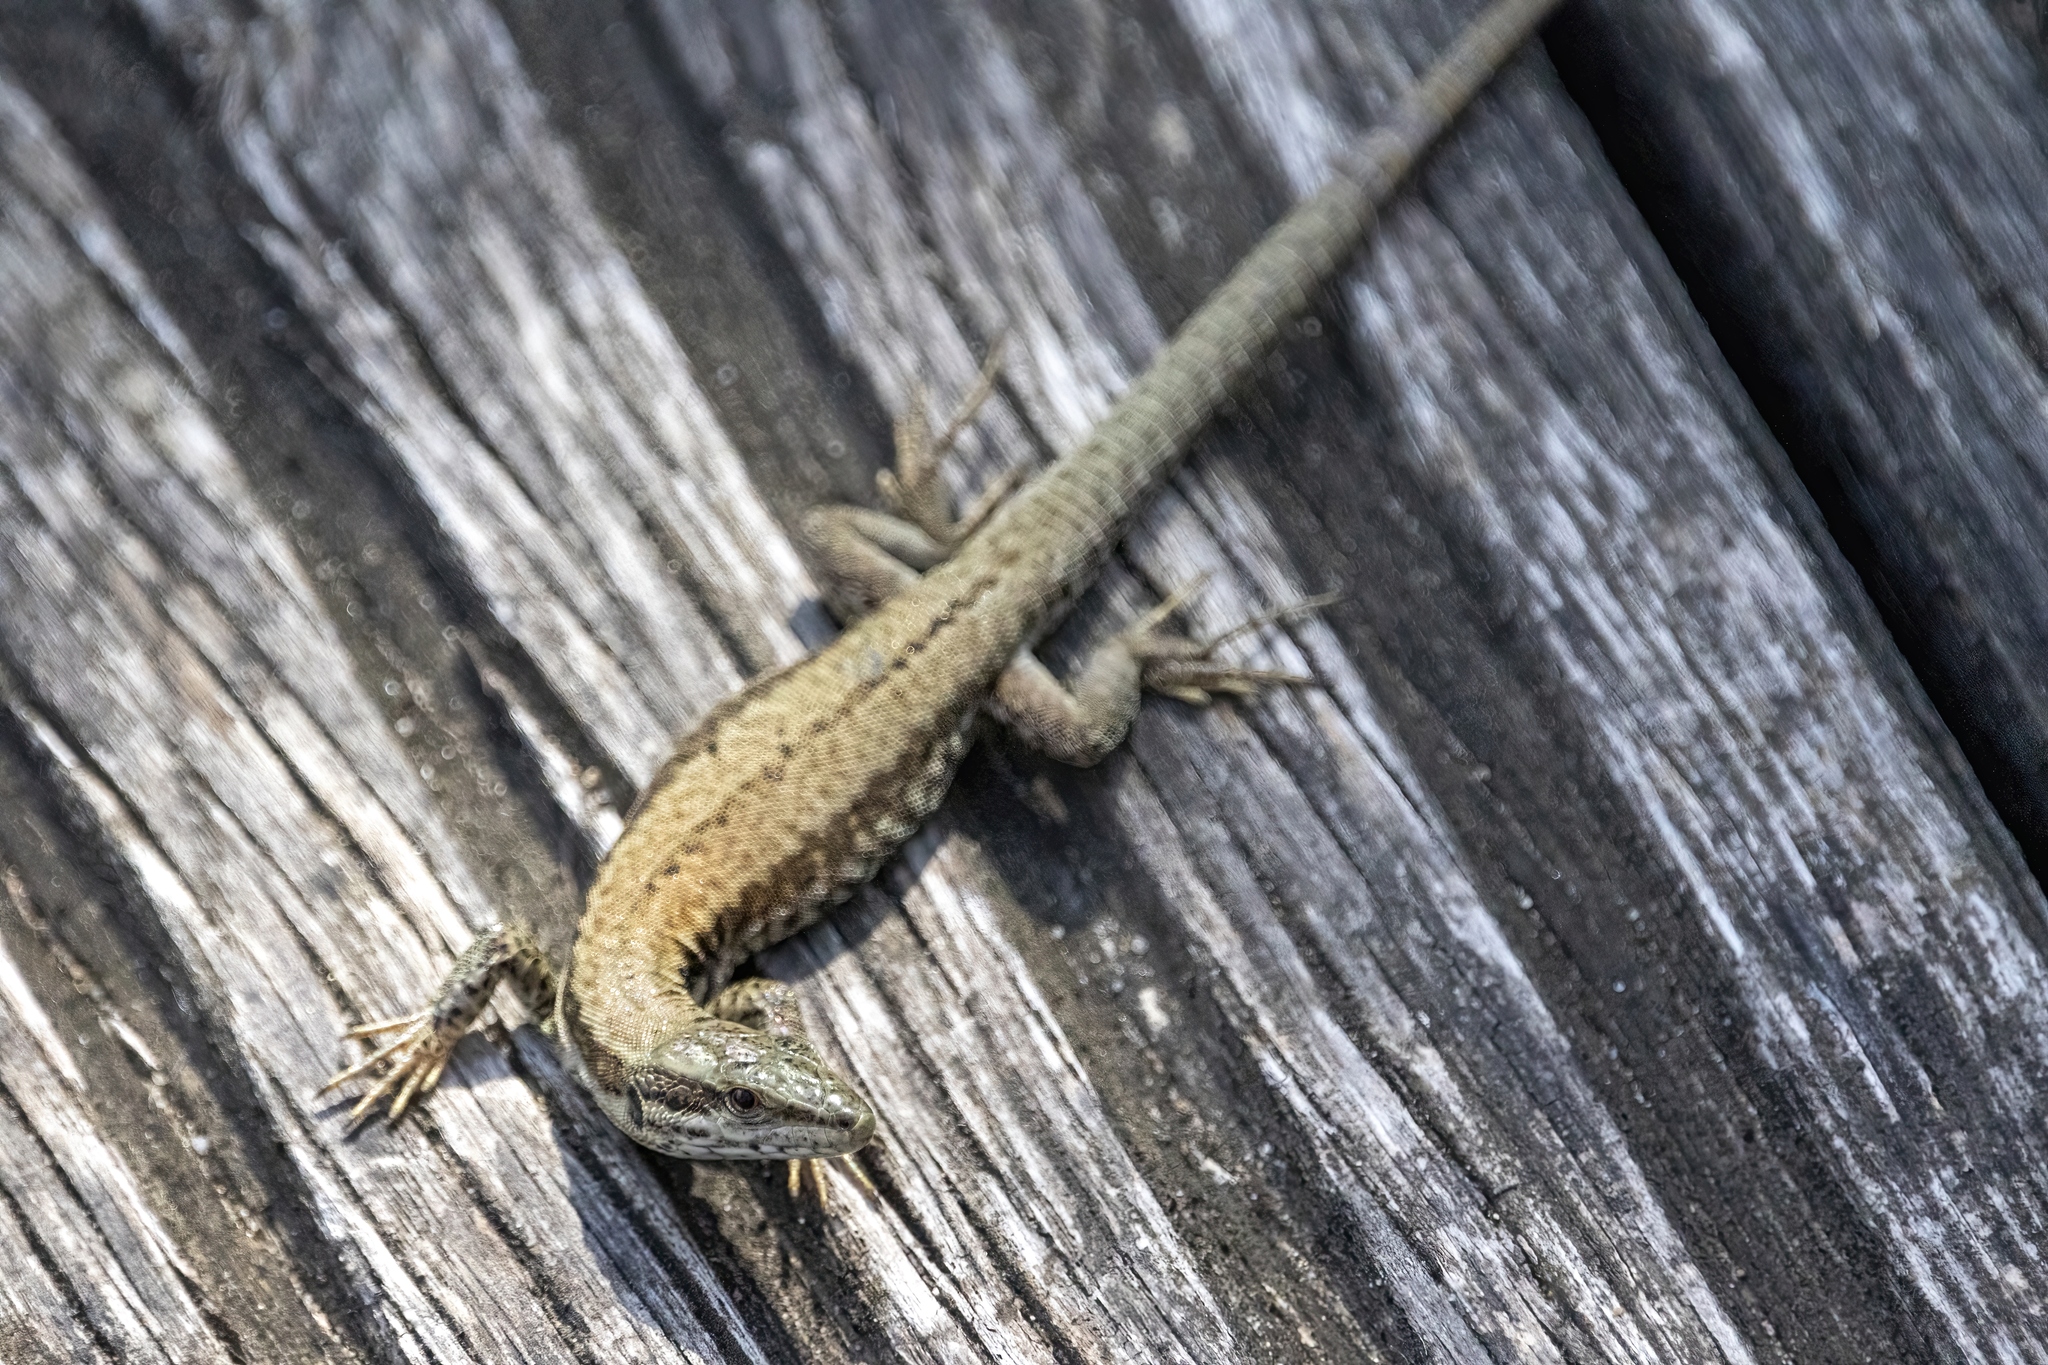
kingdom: Animalia
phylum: Chordata
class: Squamata
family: Lacertidae
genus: Podarcis
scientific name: Podarcis muralis
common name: Common wall lizard
